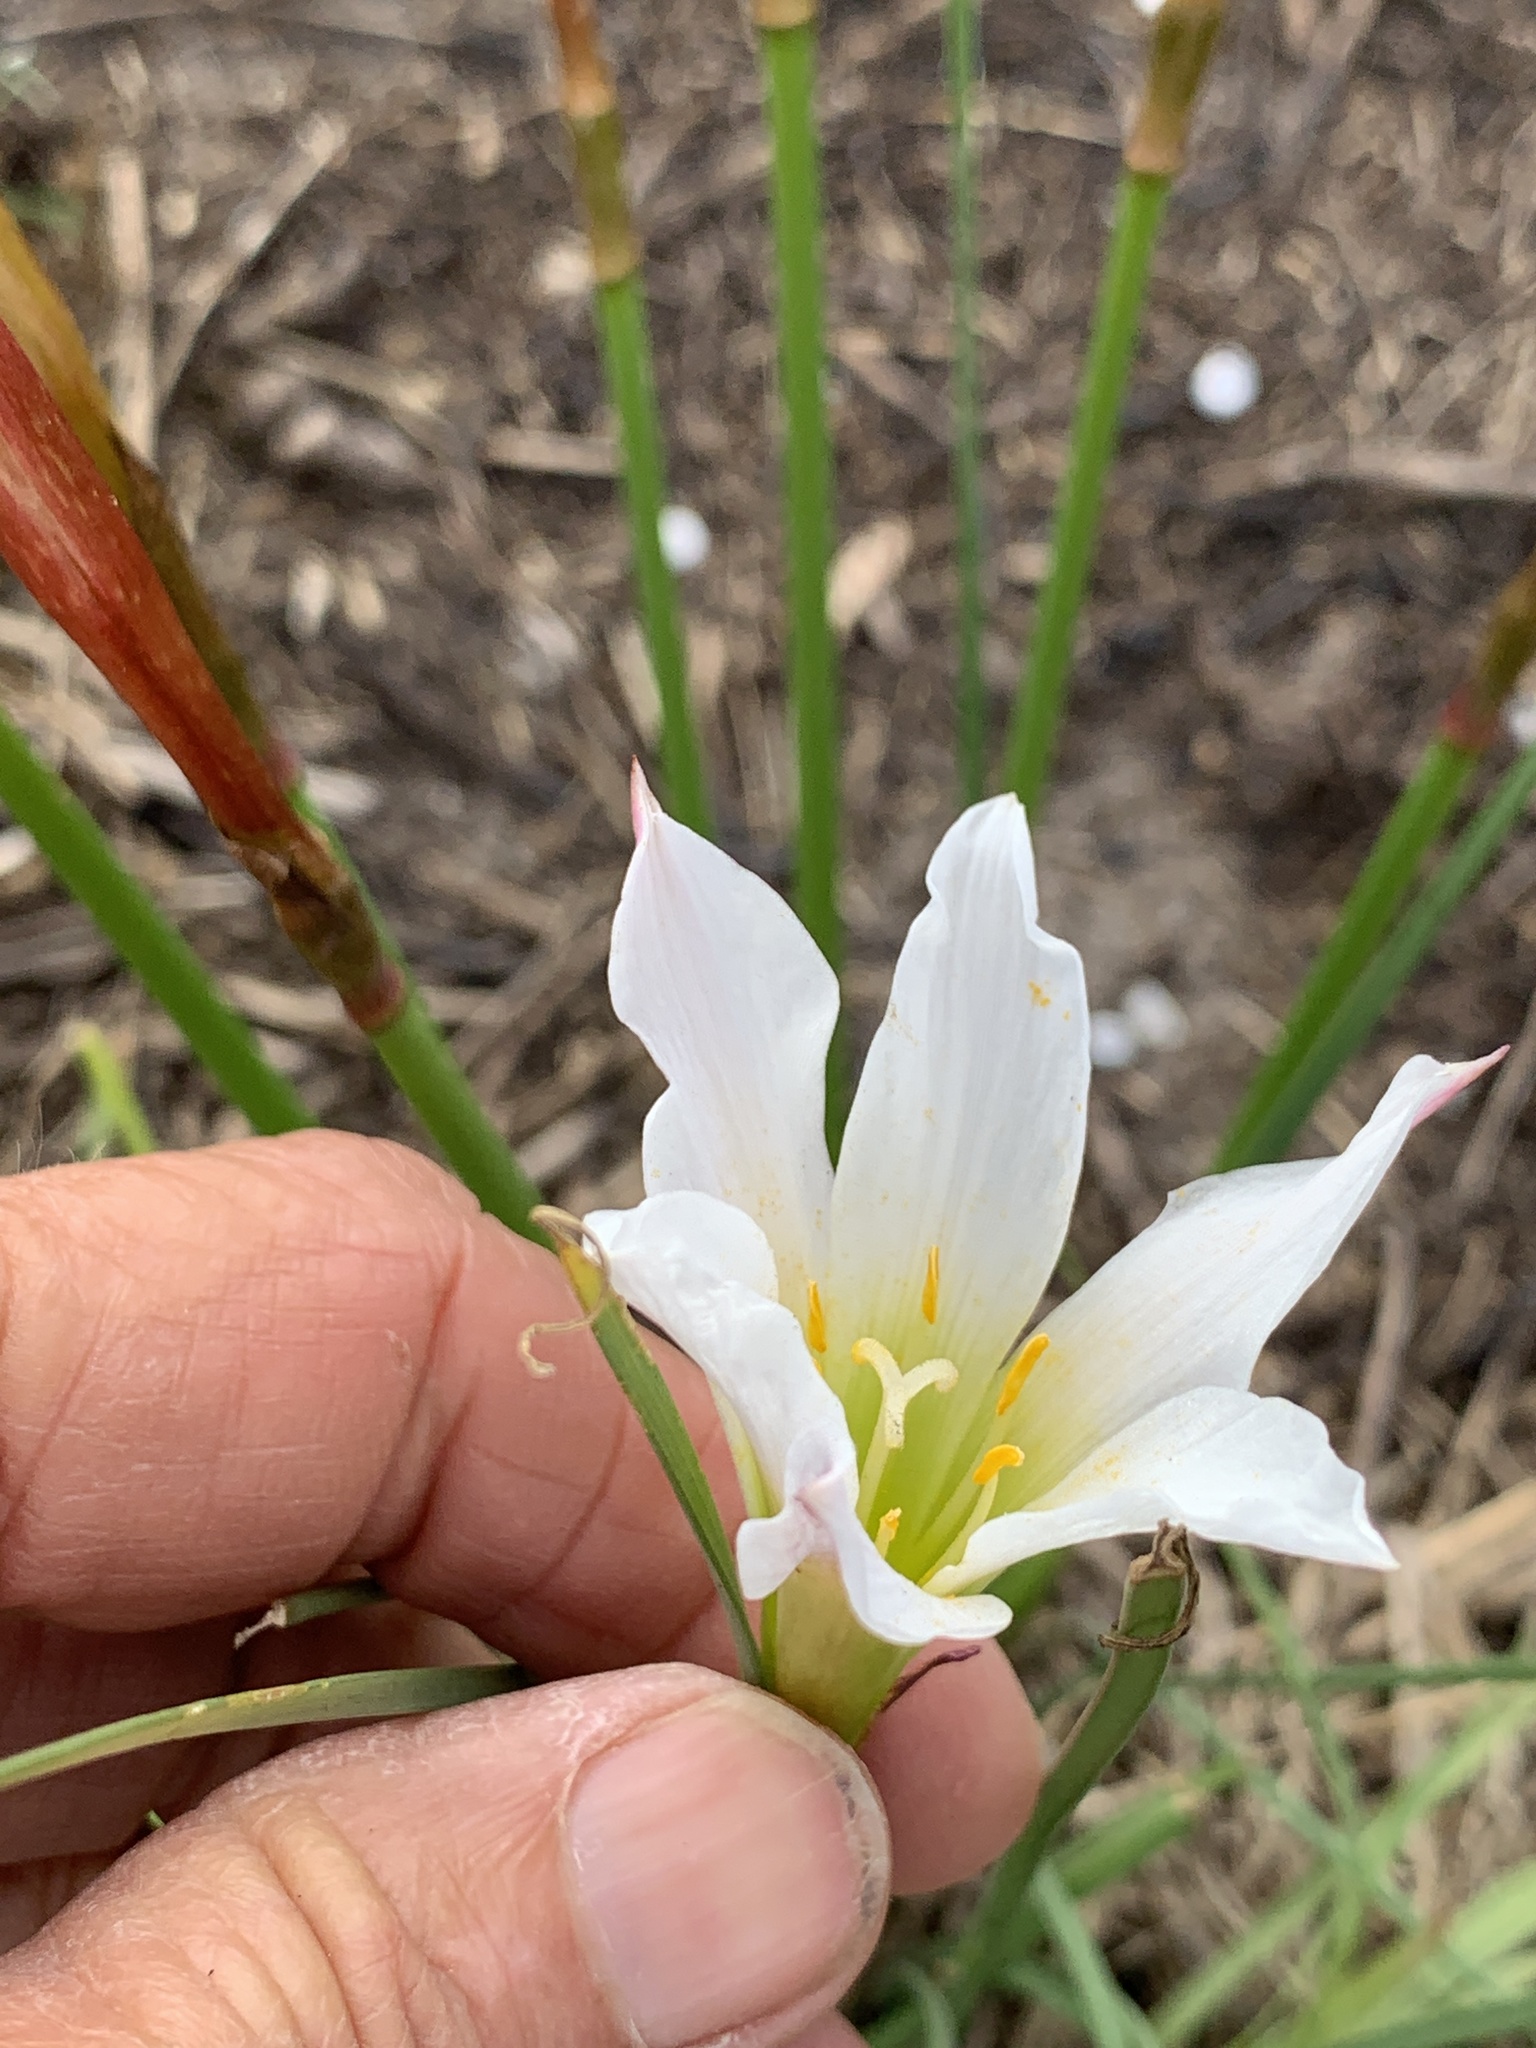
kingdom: Plantae
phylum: Tracheophyta
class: Liliopsida
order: Asparagales
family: Amaryllidaceae
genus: Zephyranthes
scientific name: Zephyranthes simpsonii
